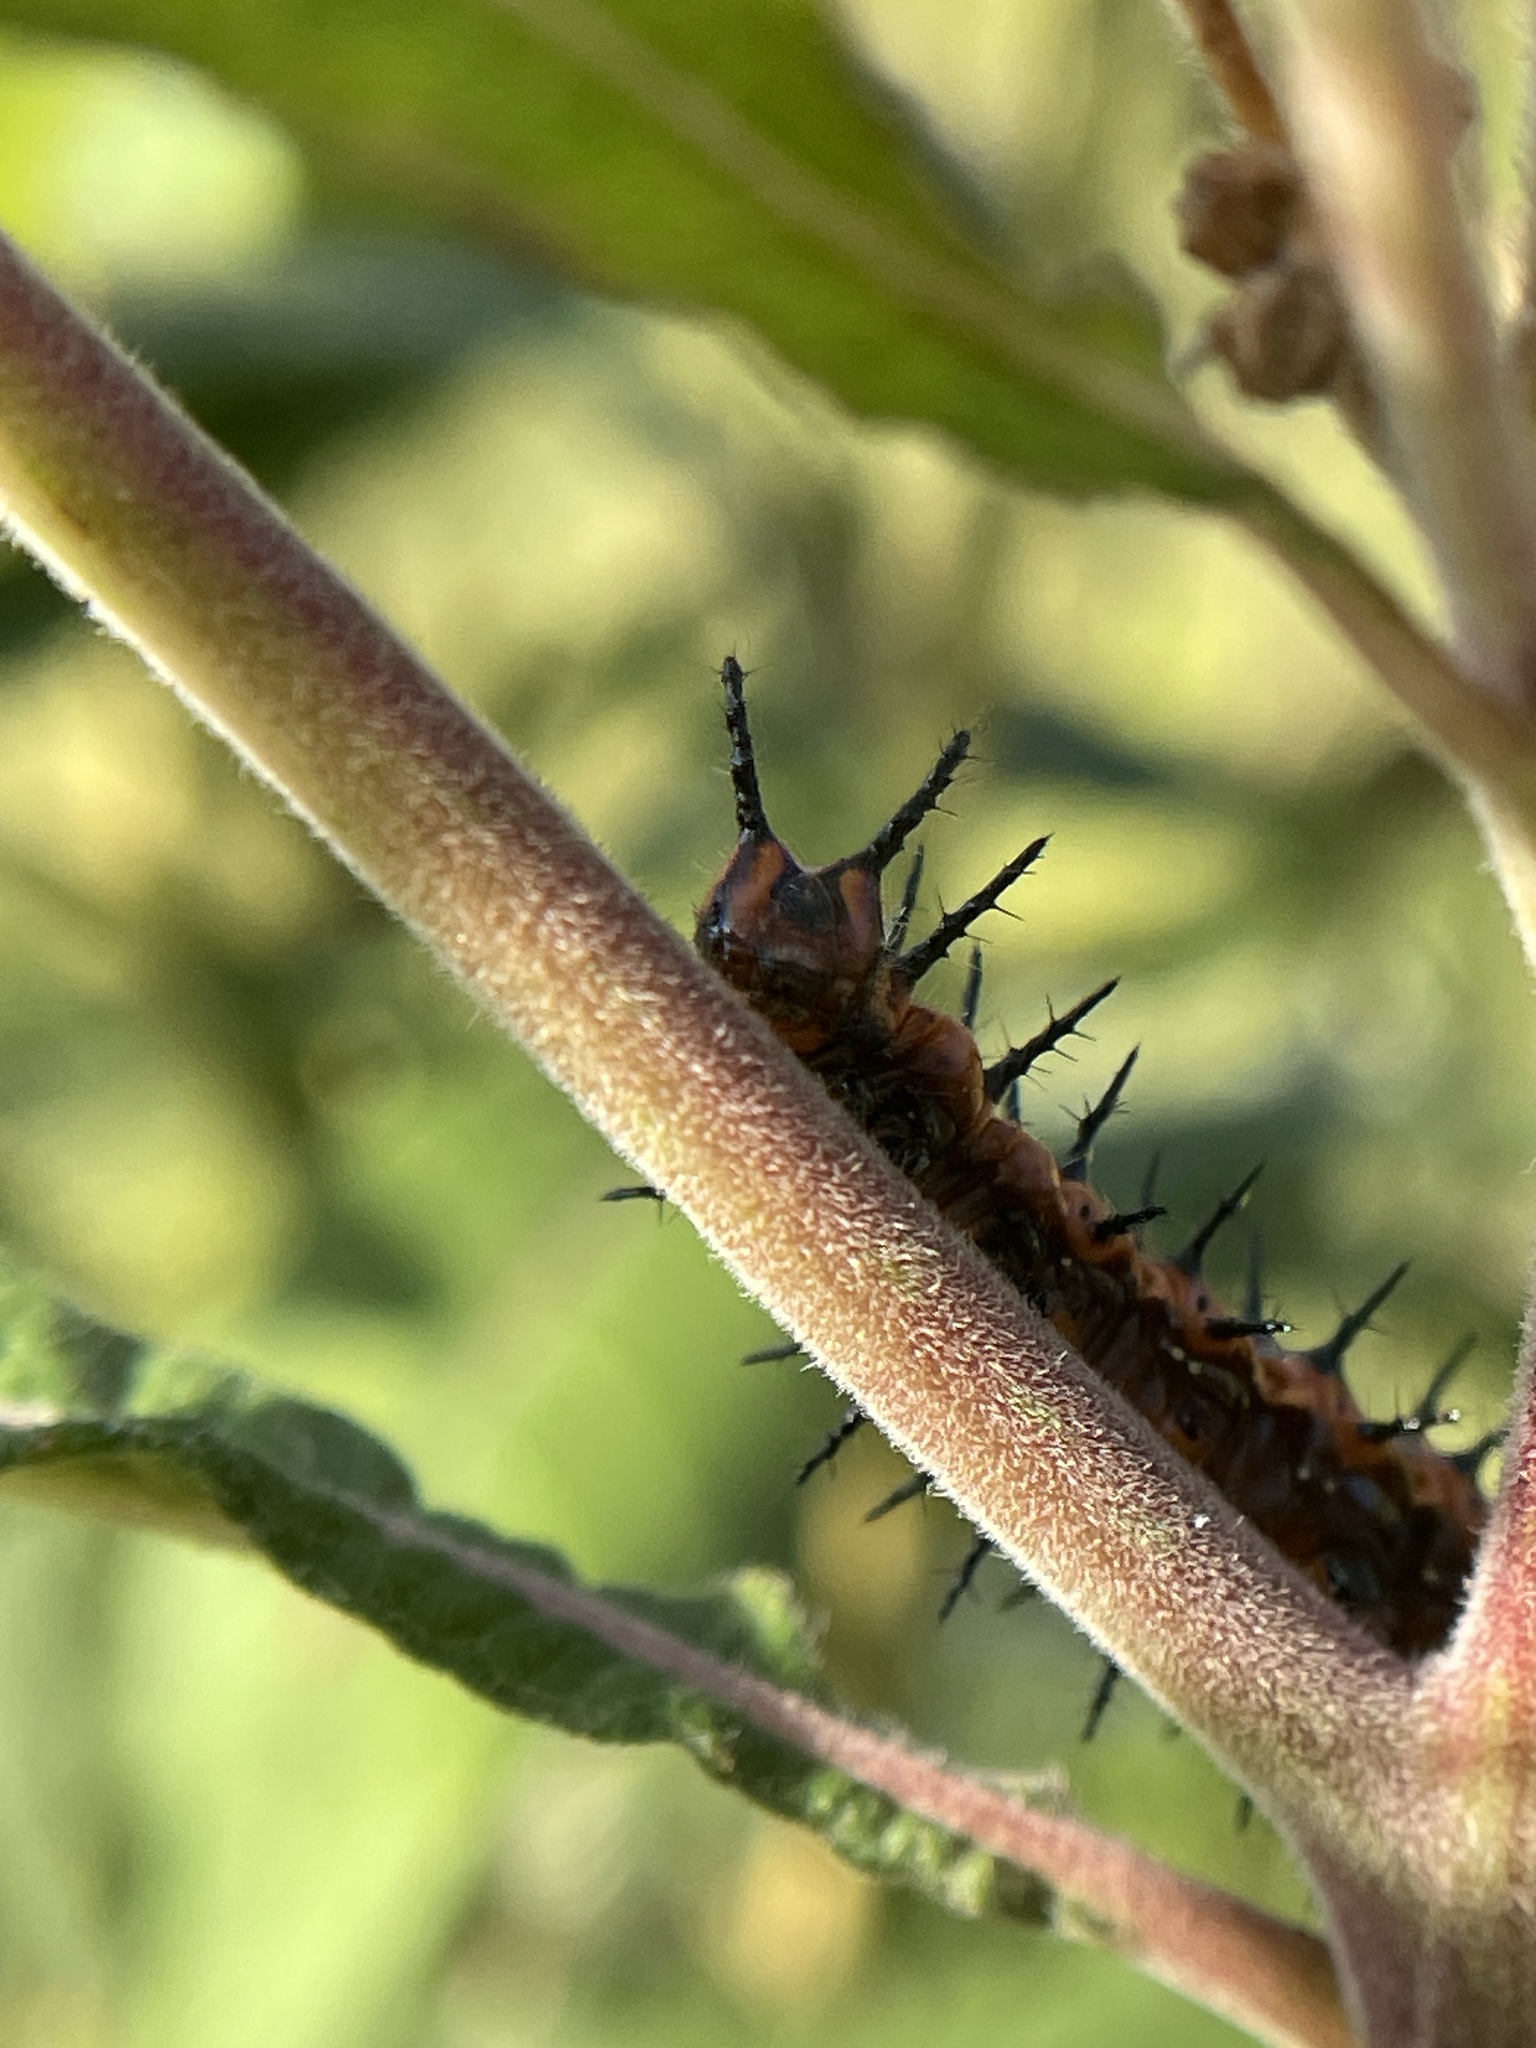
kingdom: Animalia
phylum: Arthropoda
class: Insecta
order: Lepidoptera
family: Nymphalidae
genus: Dione
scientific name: Dione vanillae
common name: Gulf fritillary
